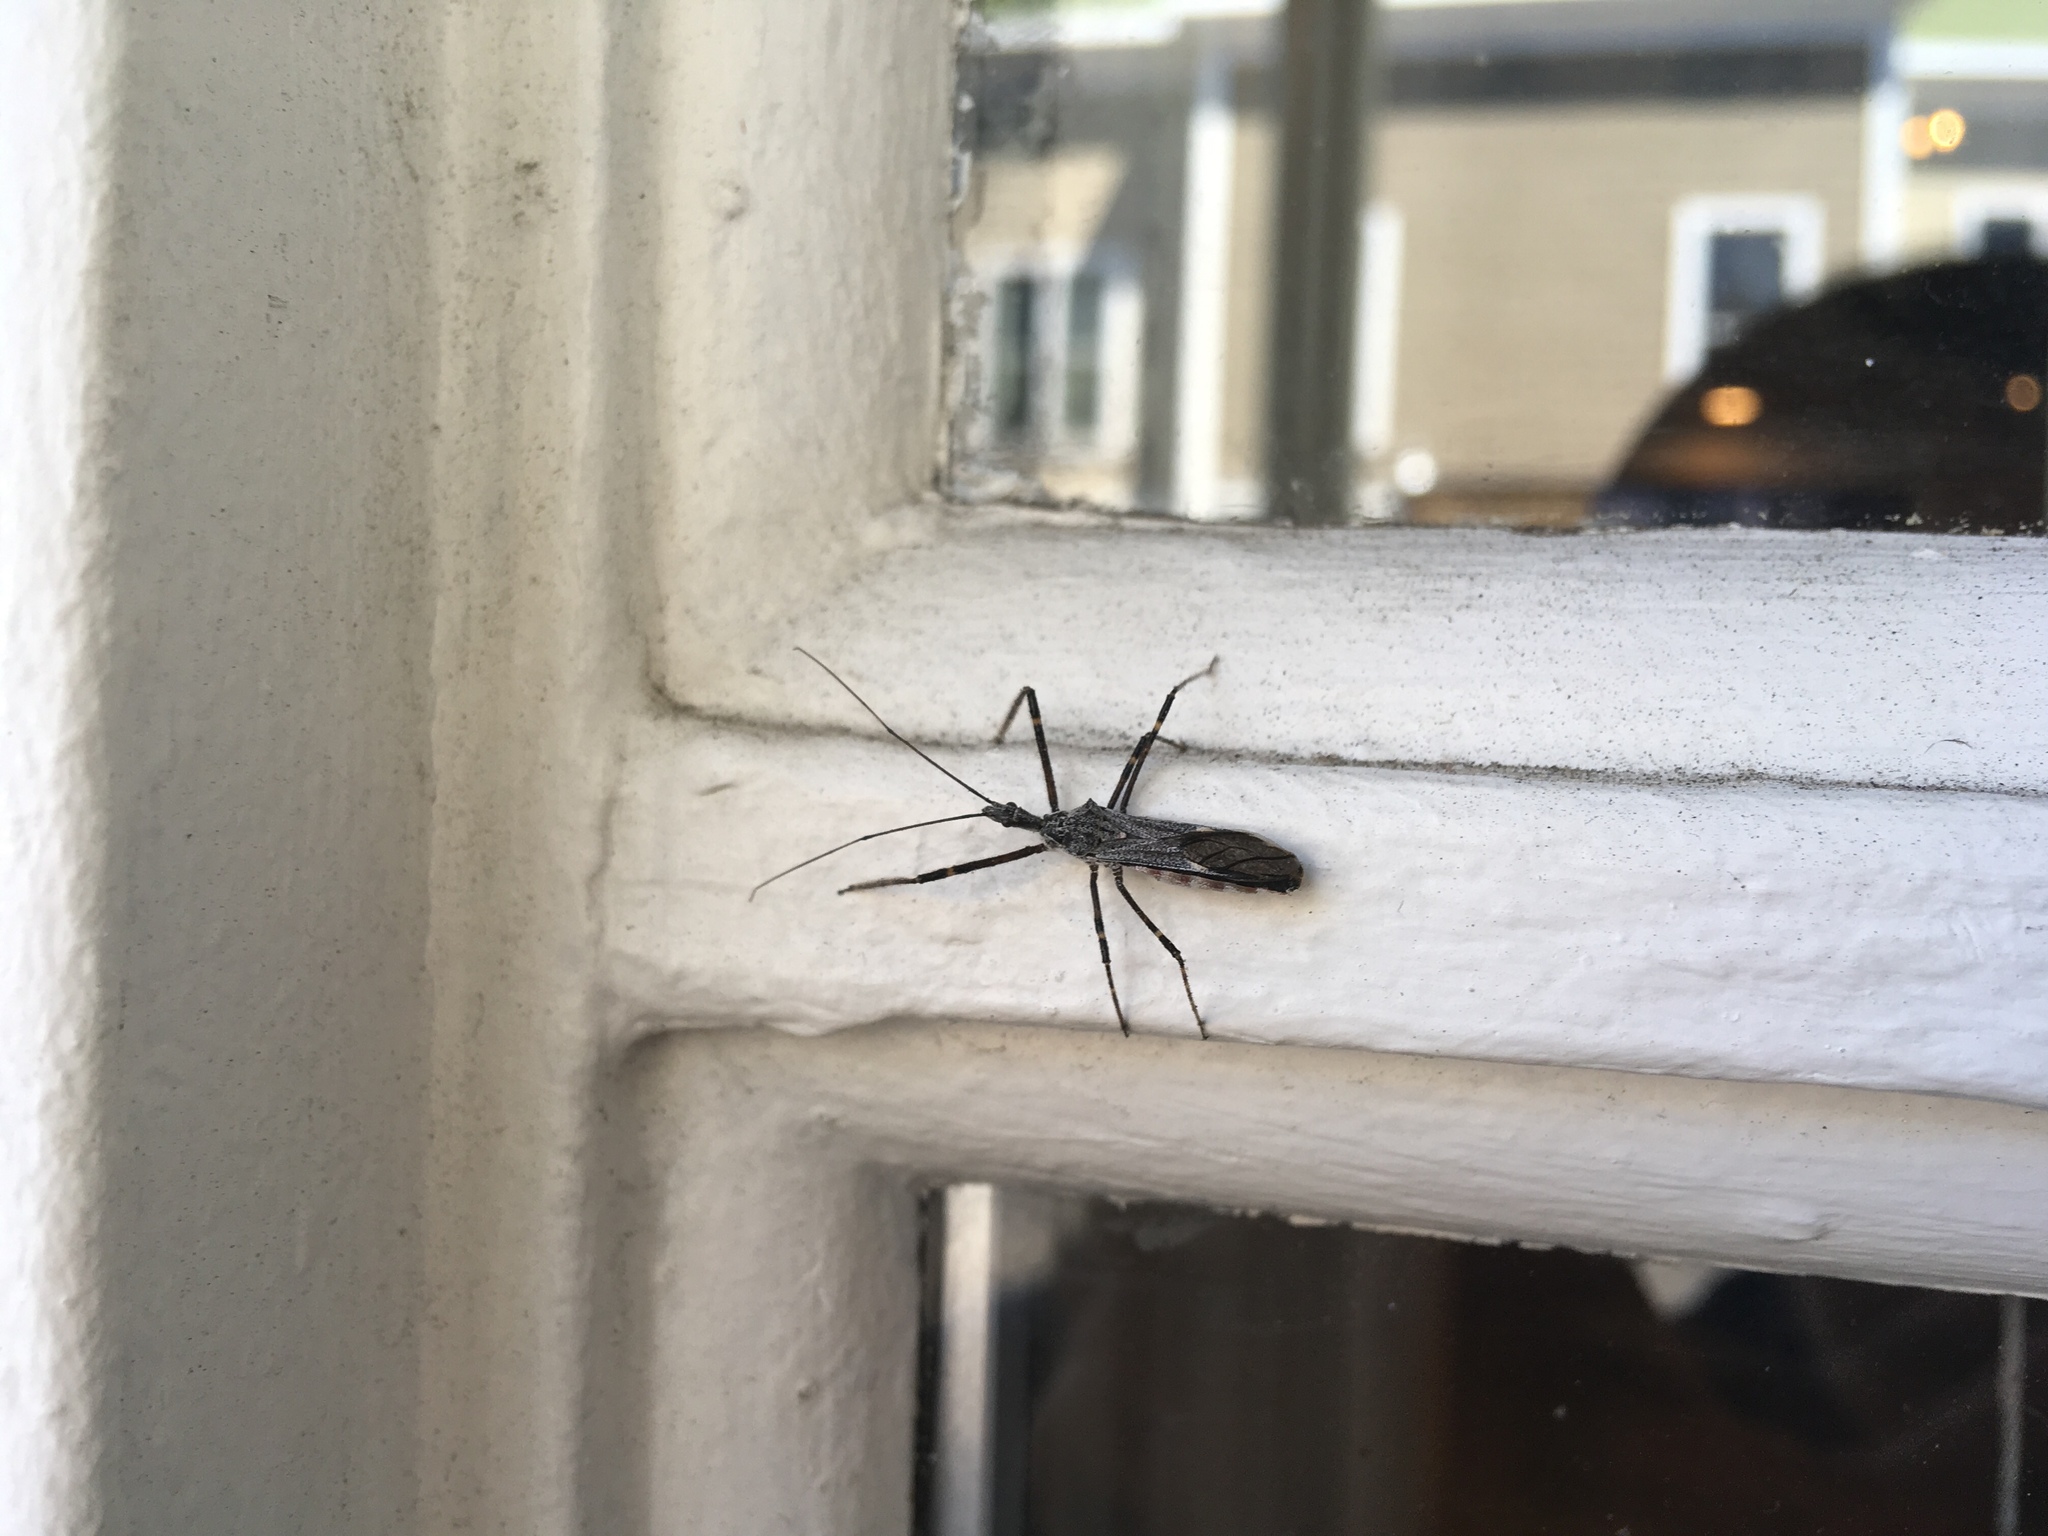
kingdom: Animalia
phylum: Arthropoda
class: Insecta
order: Hemiptera
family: Reduviidae
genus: Zelus
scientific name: Zelus tetracanthus
